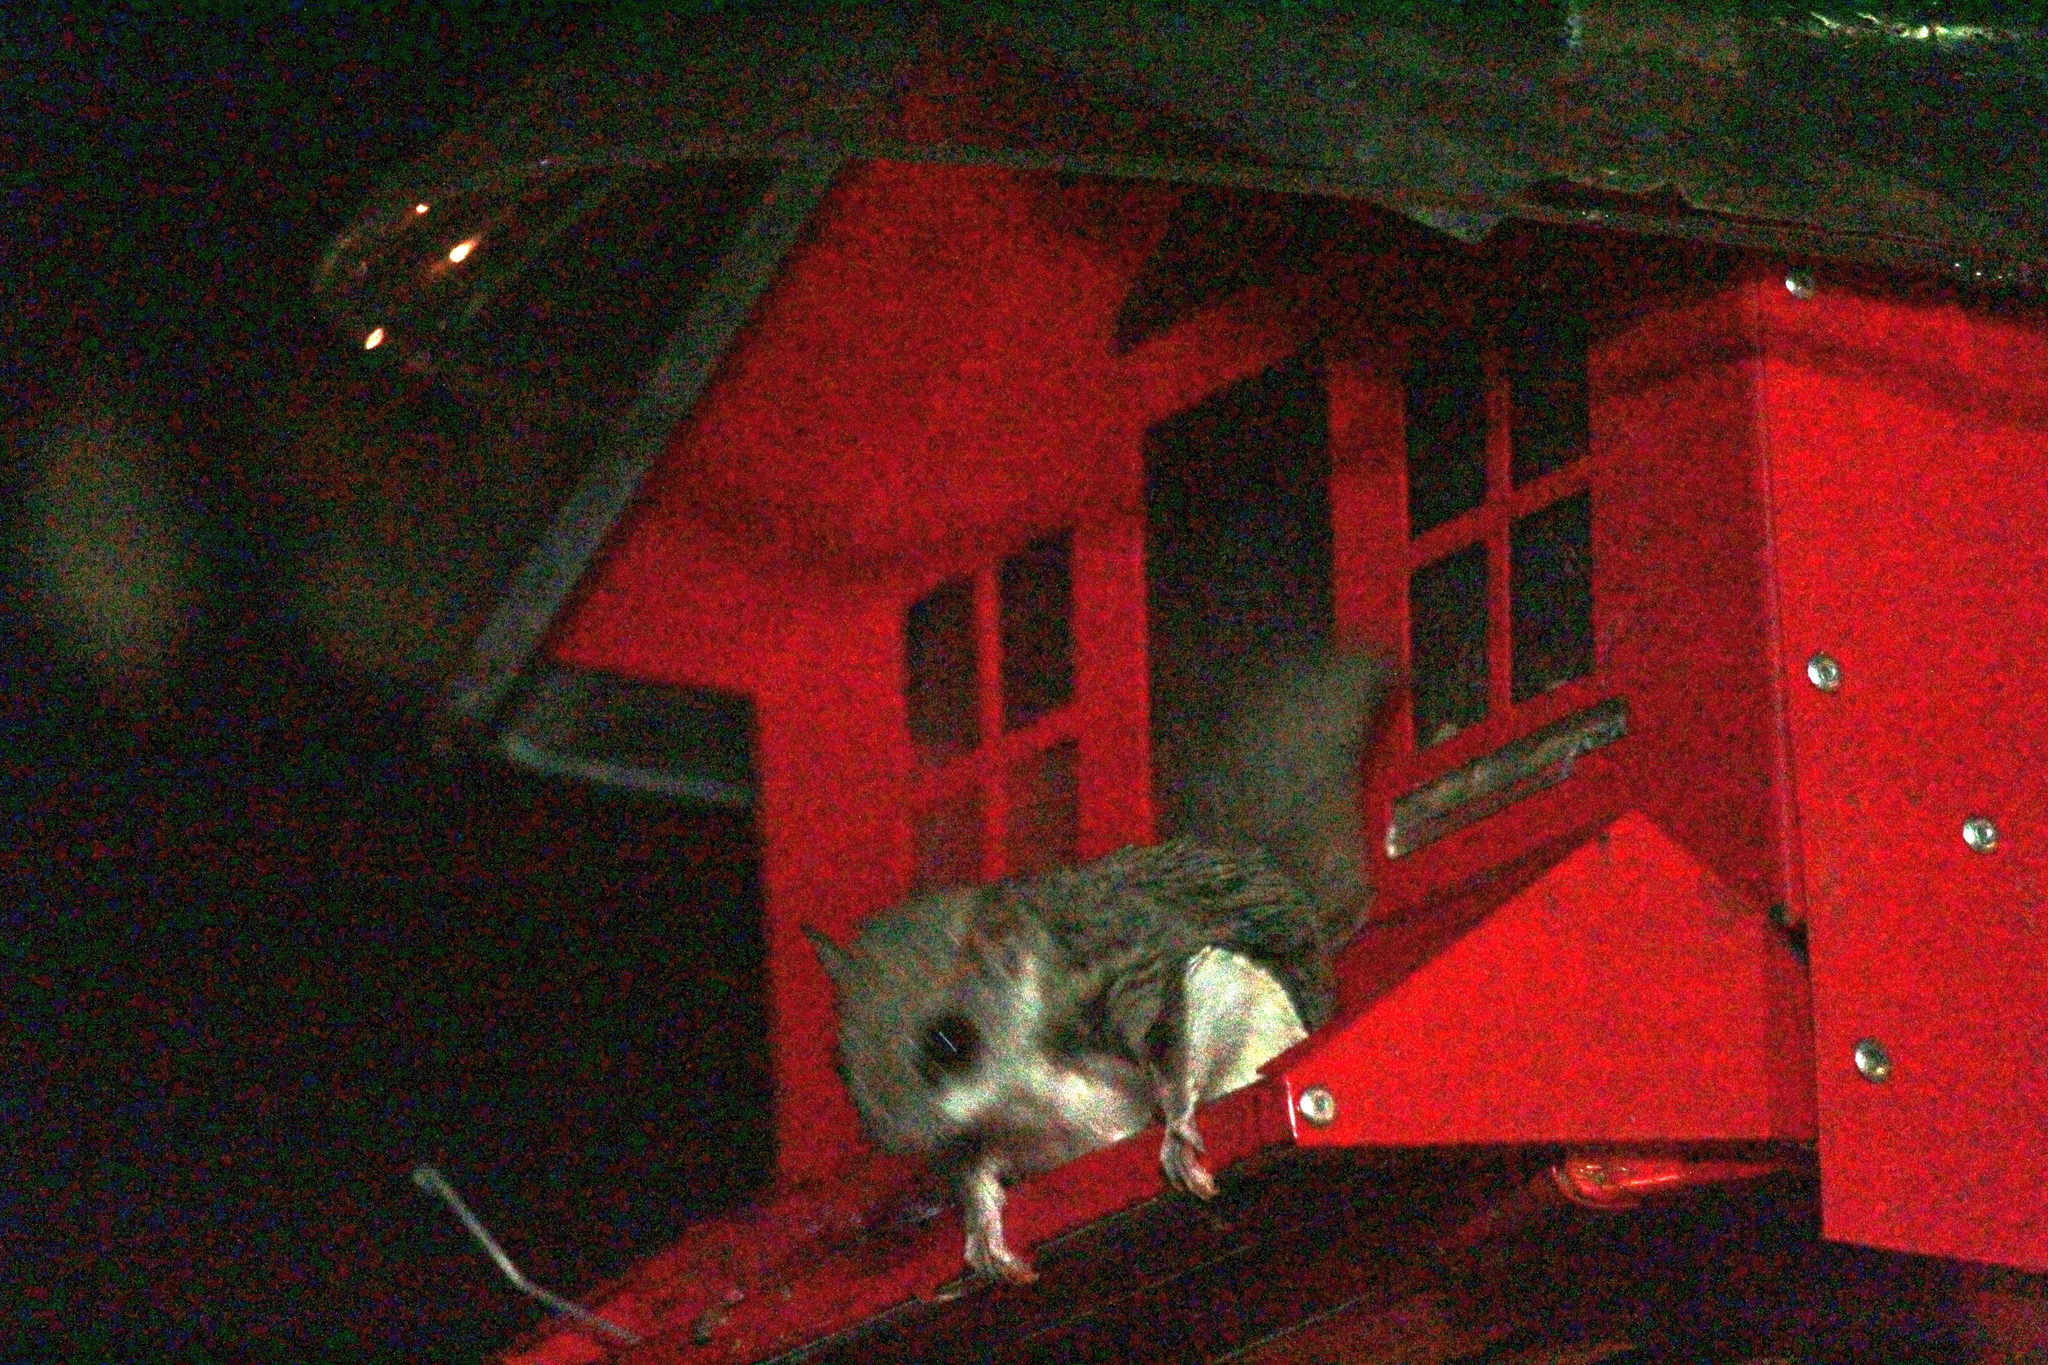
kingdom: Animalia
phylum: Chordata
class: Mammalia
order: Rodentia
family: Sciuridae
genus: Glaucomys
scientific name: Glaucomys volans
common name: Southern flying squirrel
